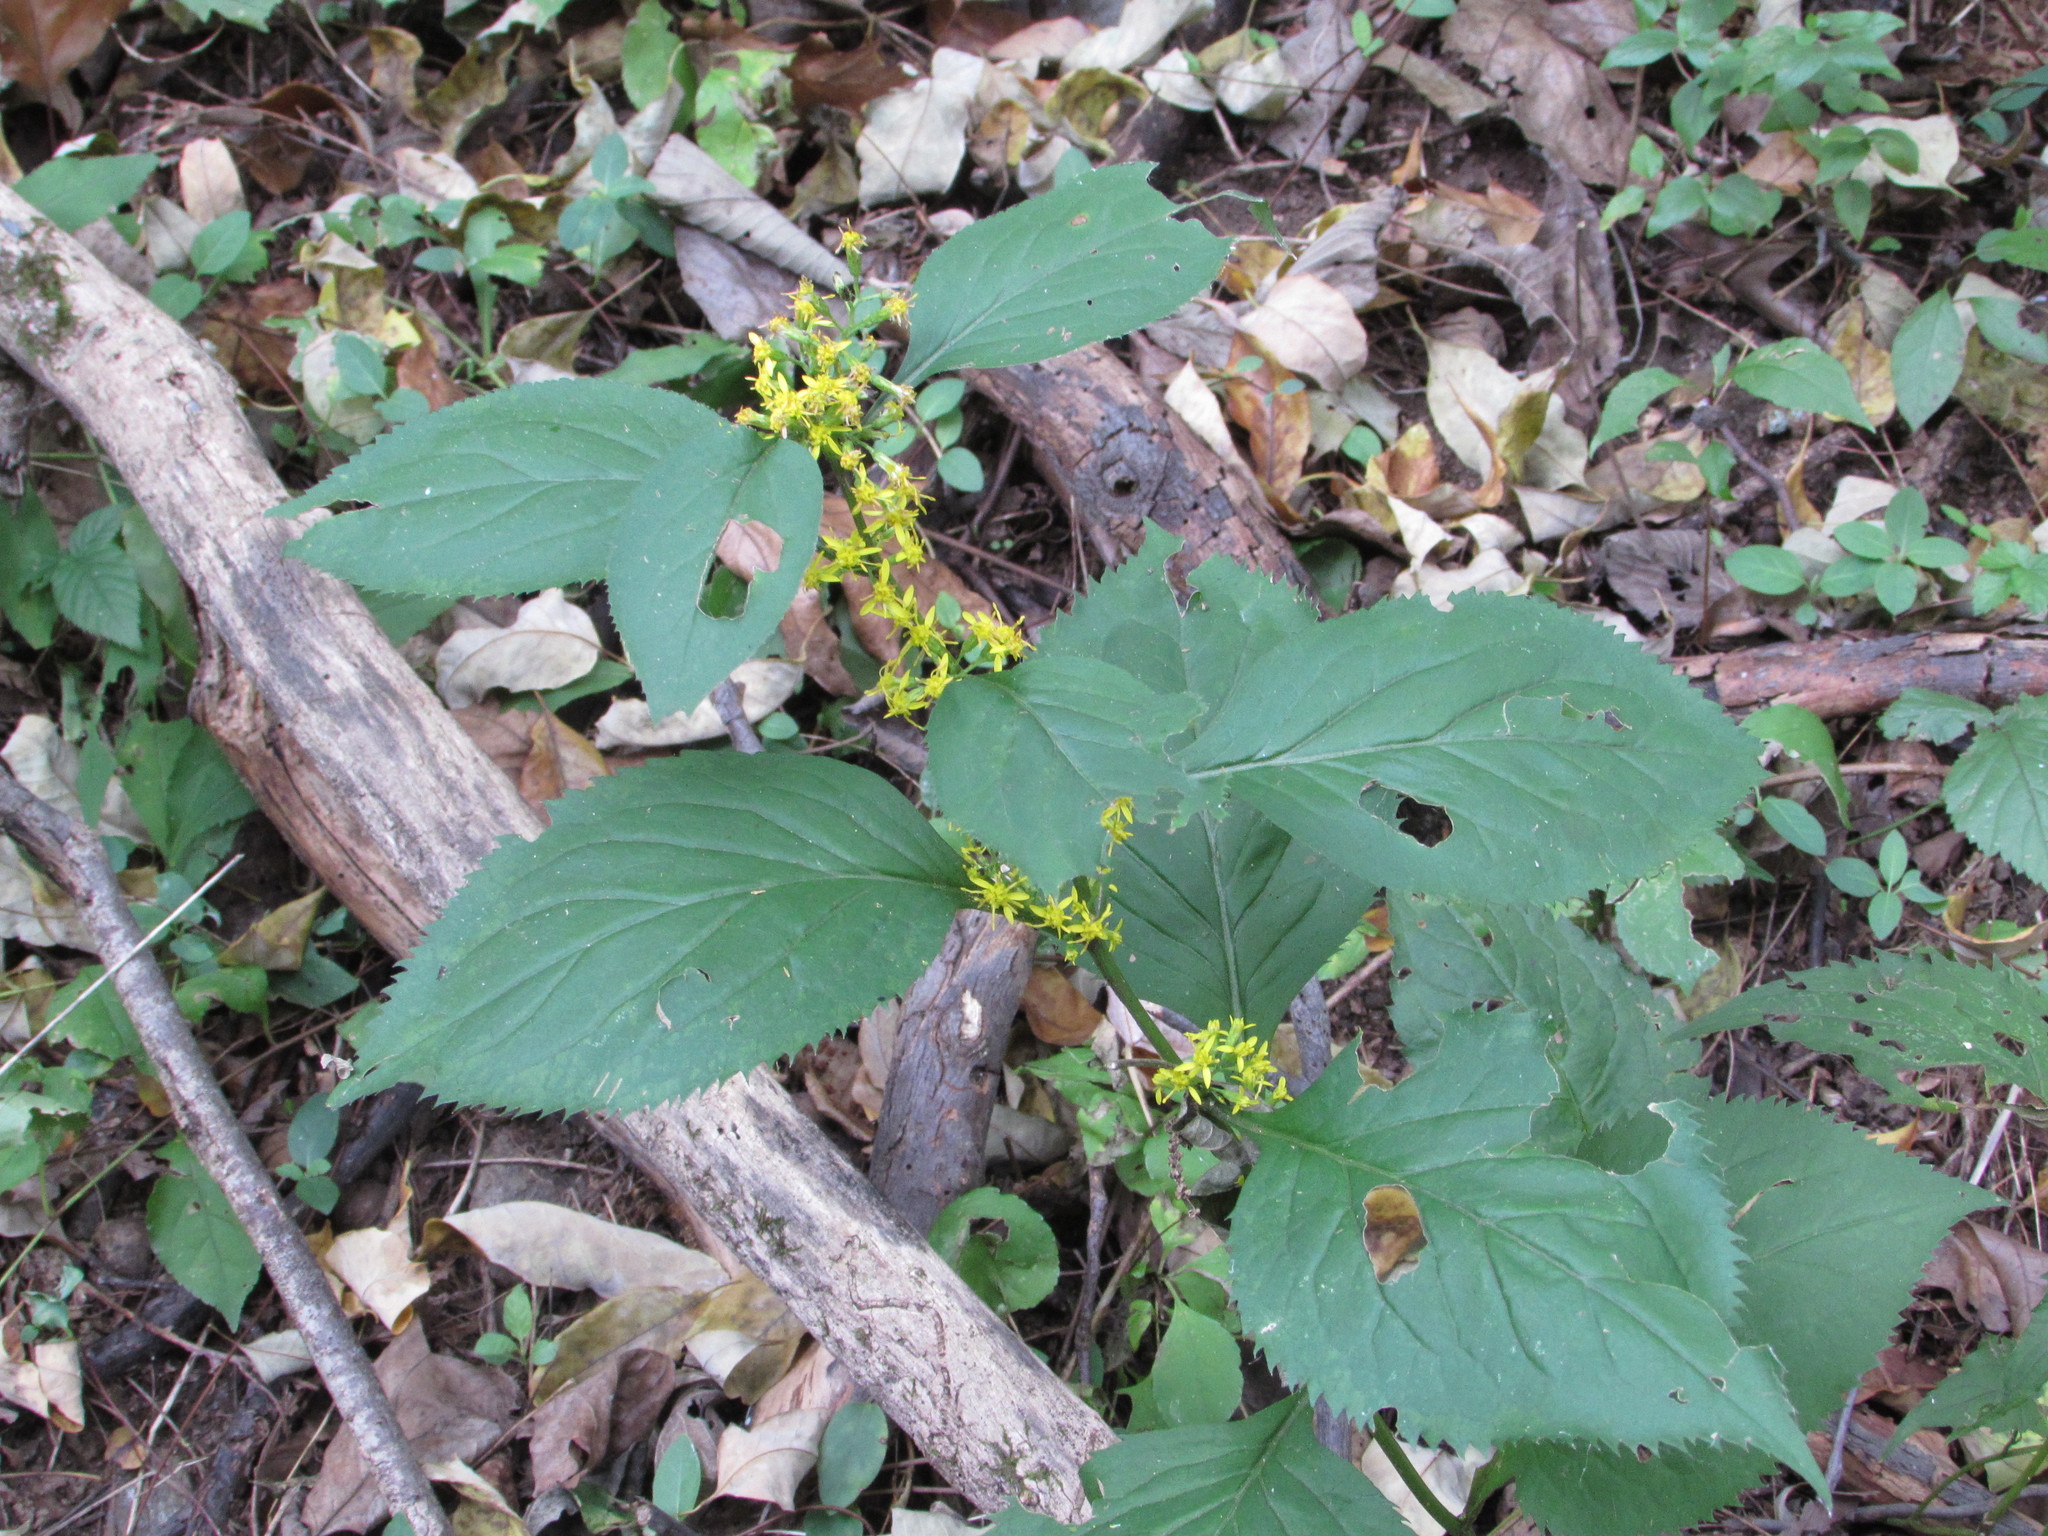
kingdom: Plantae
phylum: Tracheophyta
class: Magnoliopsida
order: Asterales
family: Asteraceae
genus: Solidago
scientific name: Solidago flexicaulis
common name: Zig-zag goldenrod
